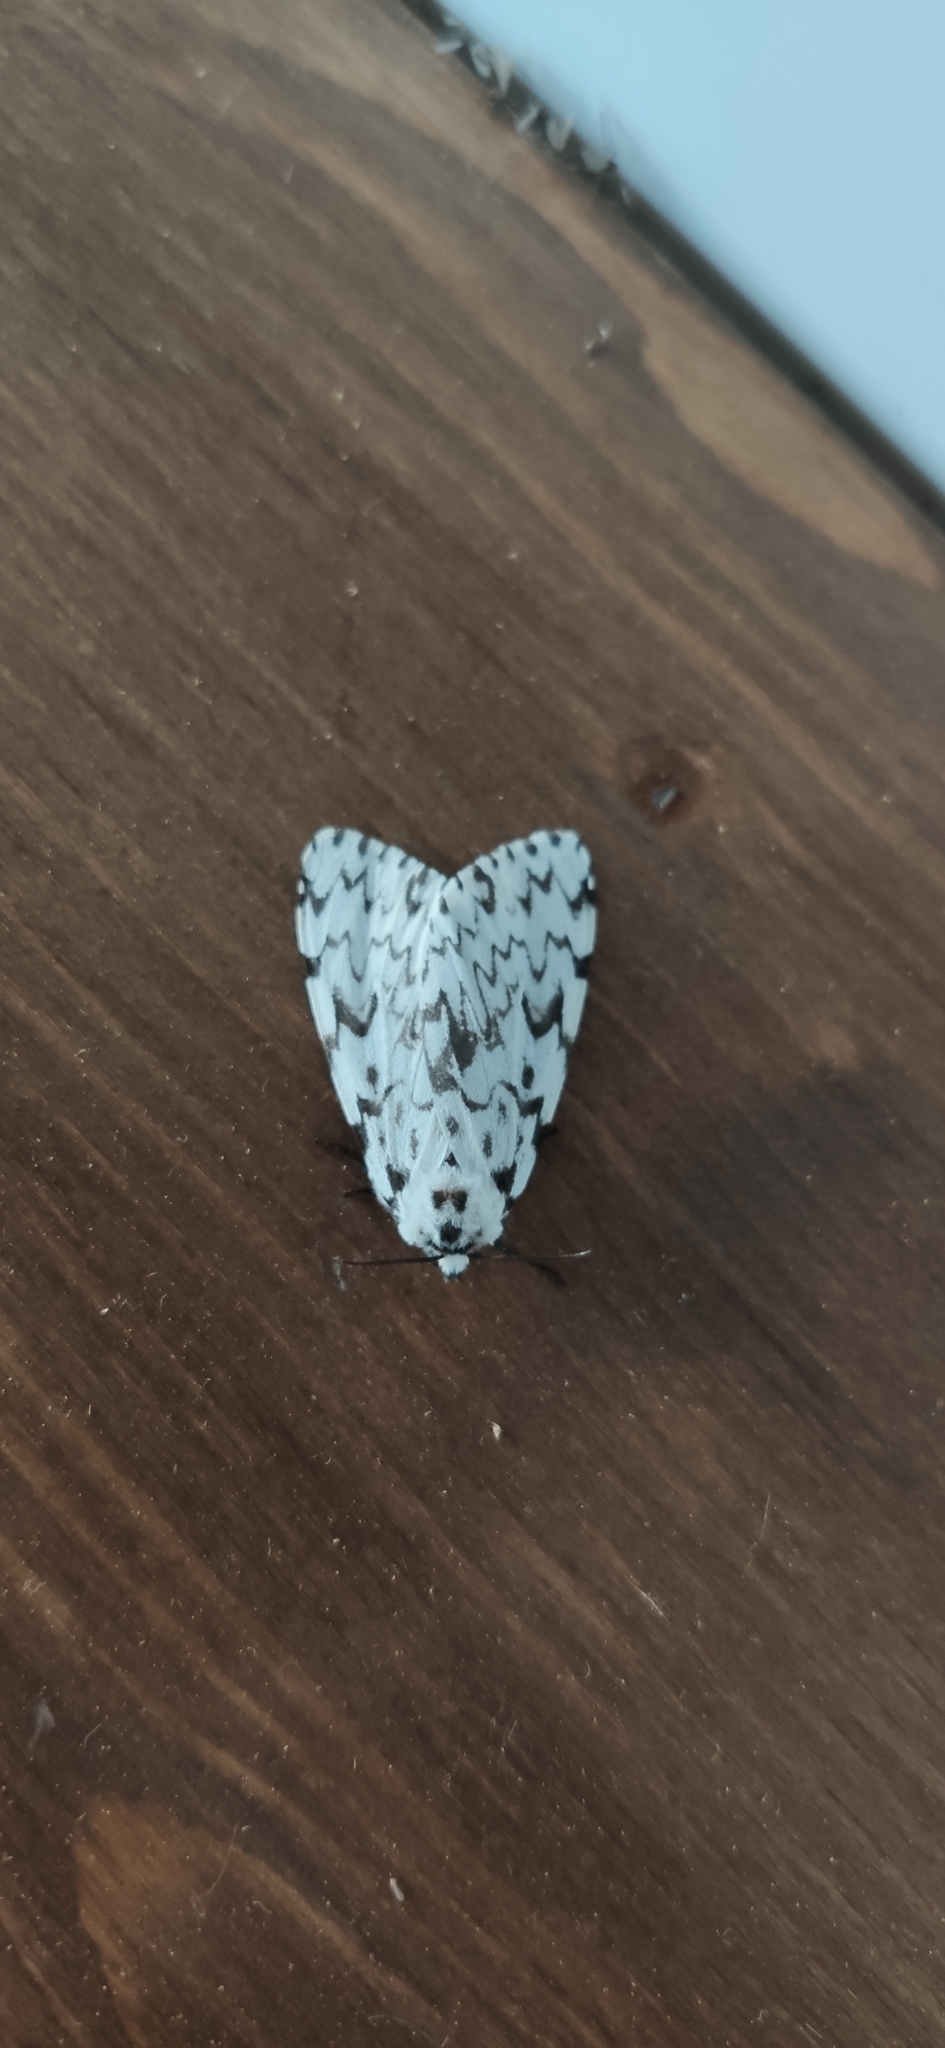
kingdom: Animalia
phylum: Arthropoda
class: Insecta
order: Lepidoptera
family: Erebidae
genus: Lymantria
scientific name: Lymantria monacha
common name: Black arches
